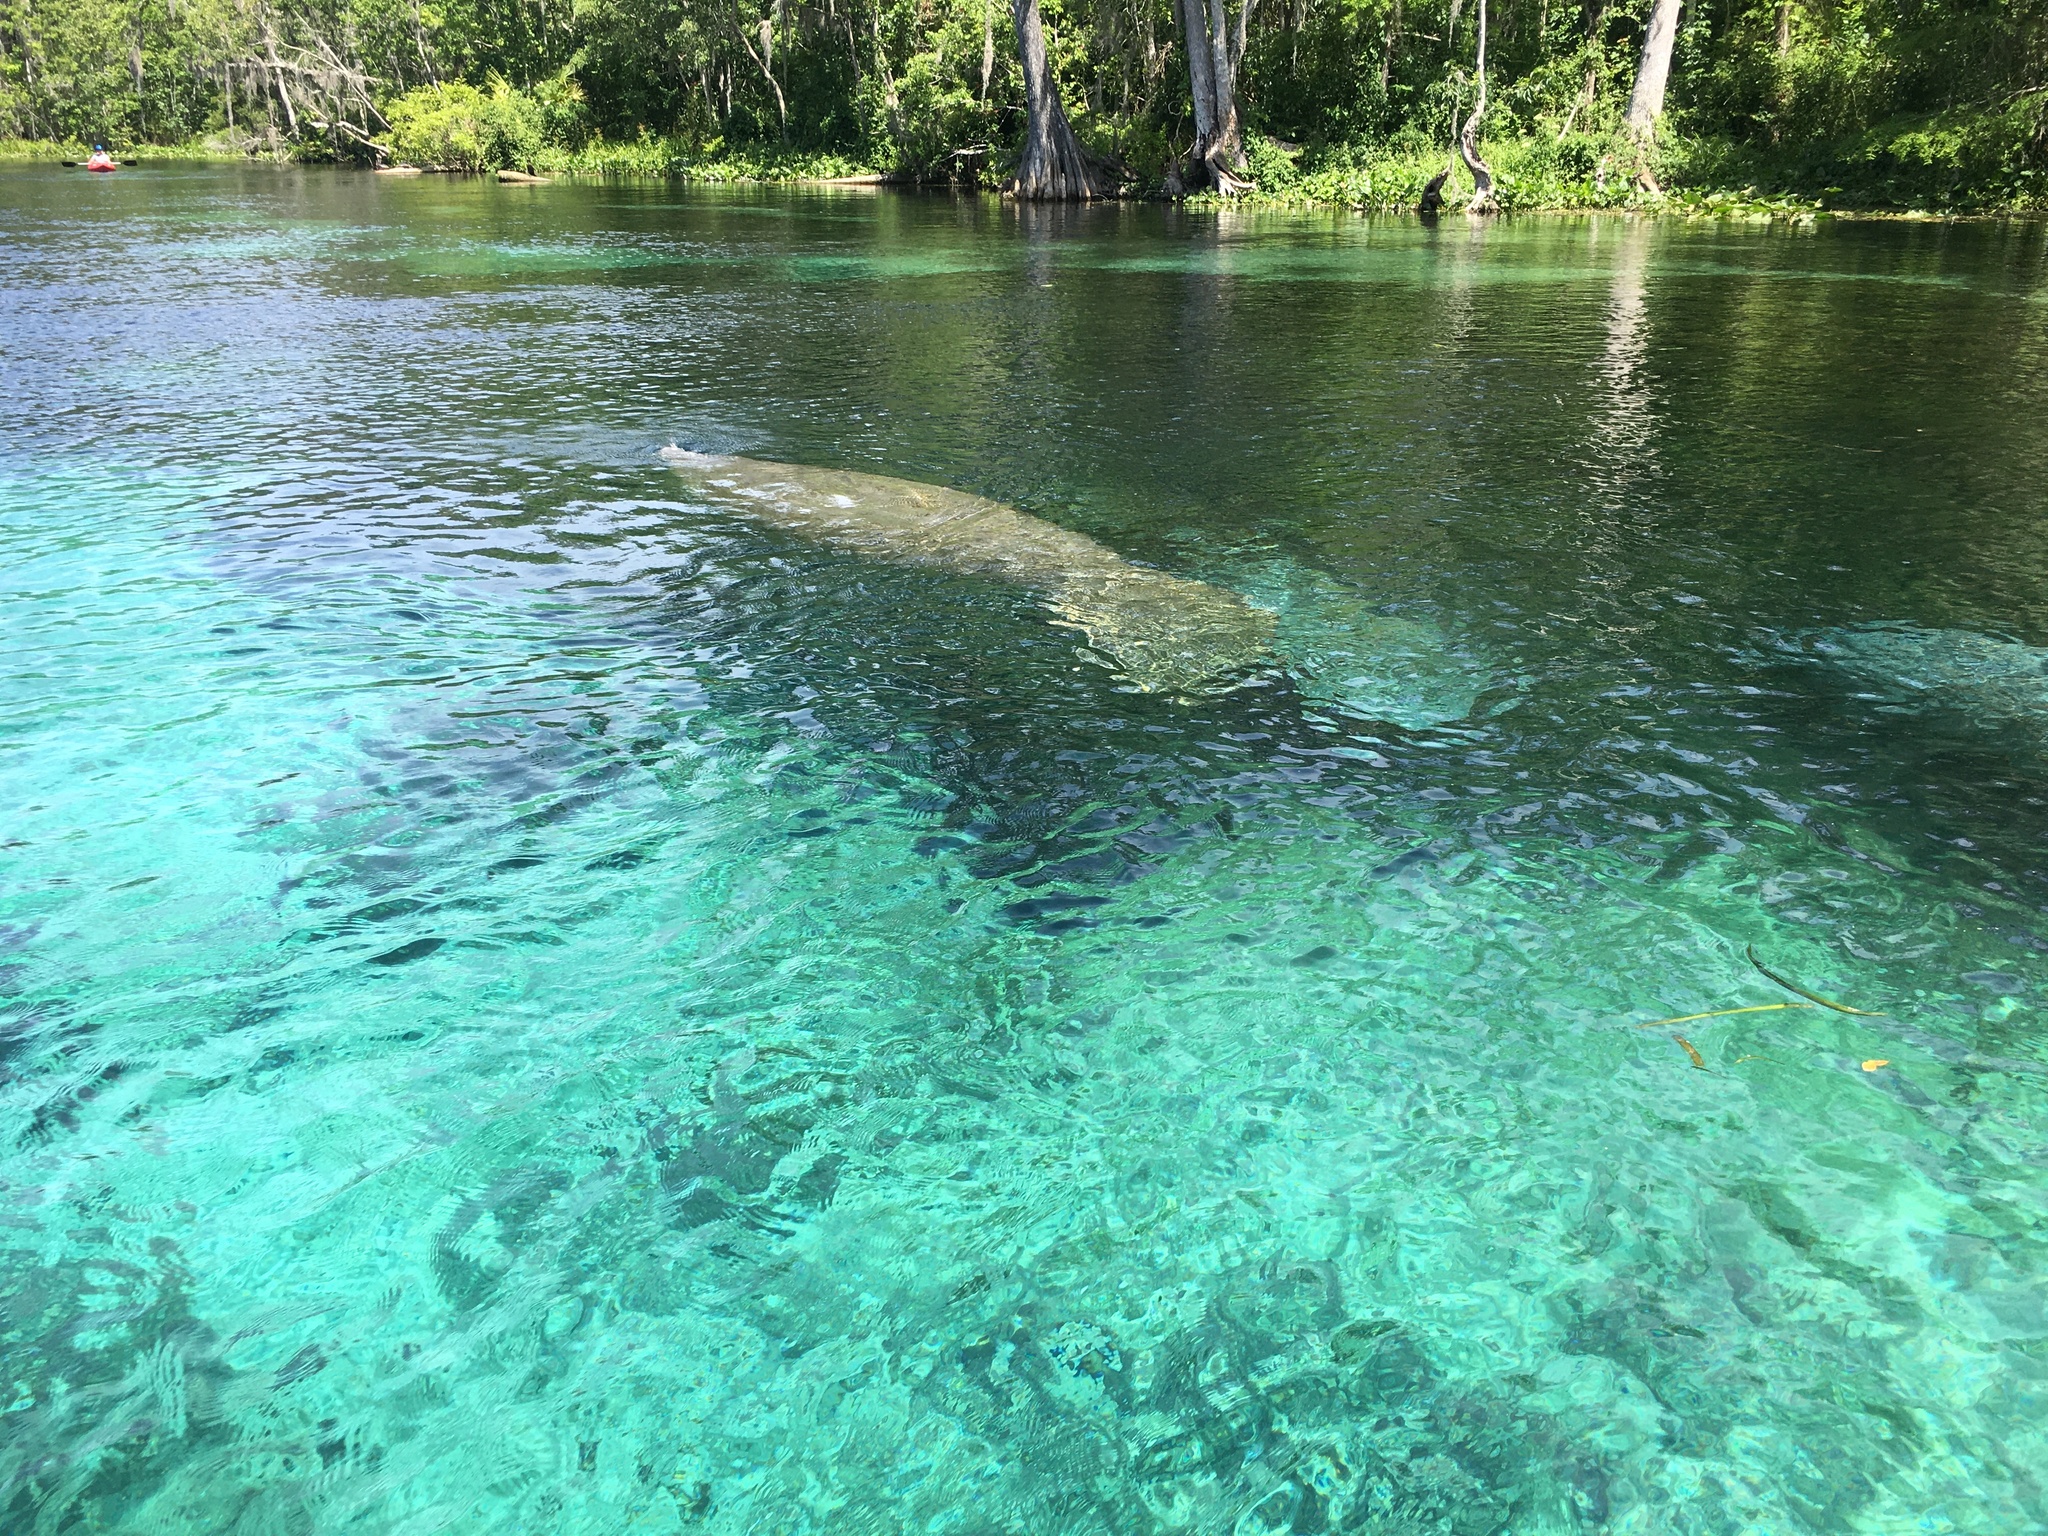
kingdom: Animalia
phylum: Chordata
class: Mammalia
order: Sirenia
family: Trichechidae
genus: Trichechus
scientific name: Trichechus manatus
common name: West indian manatee
